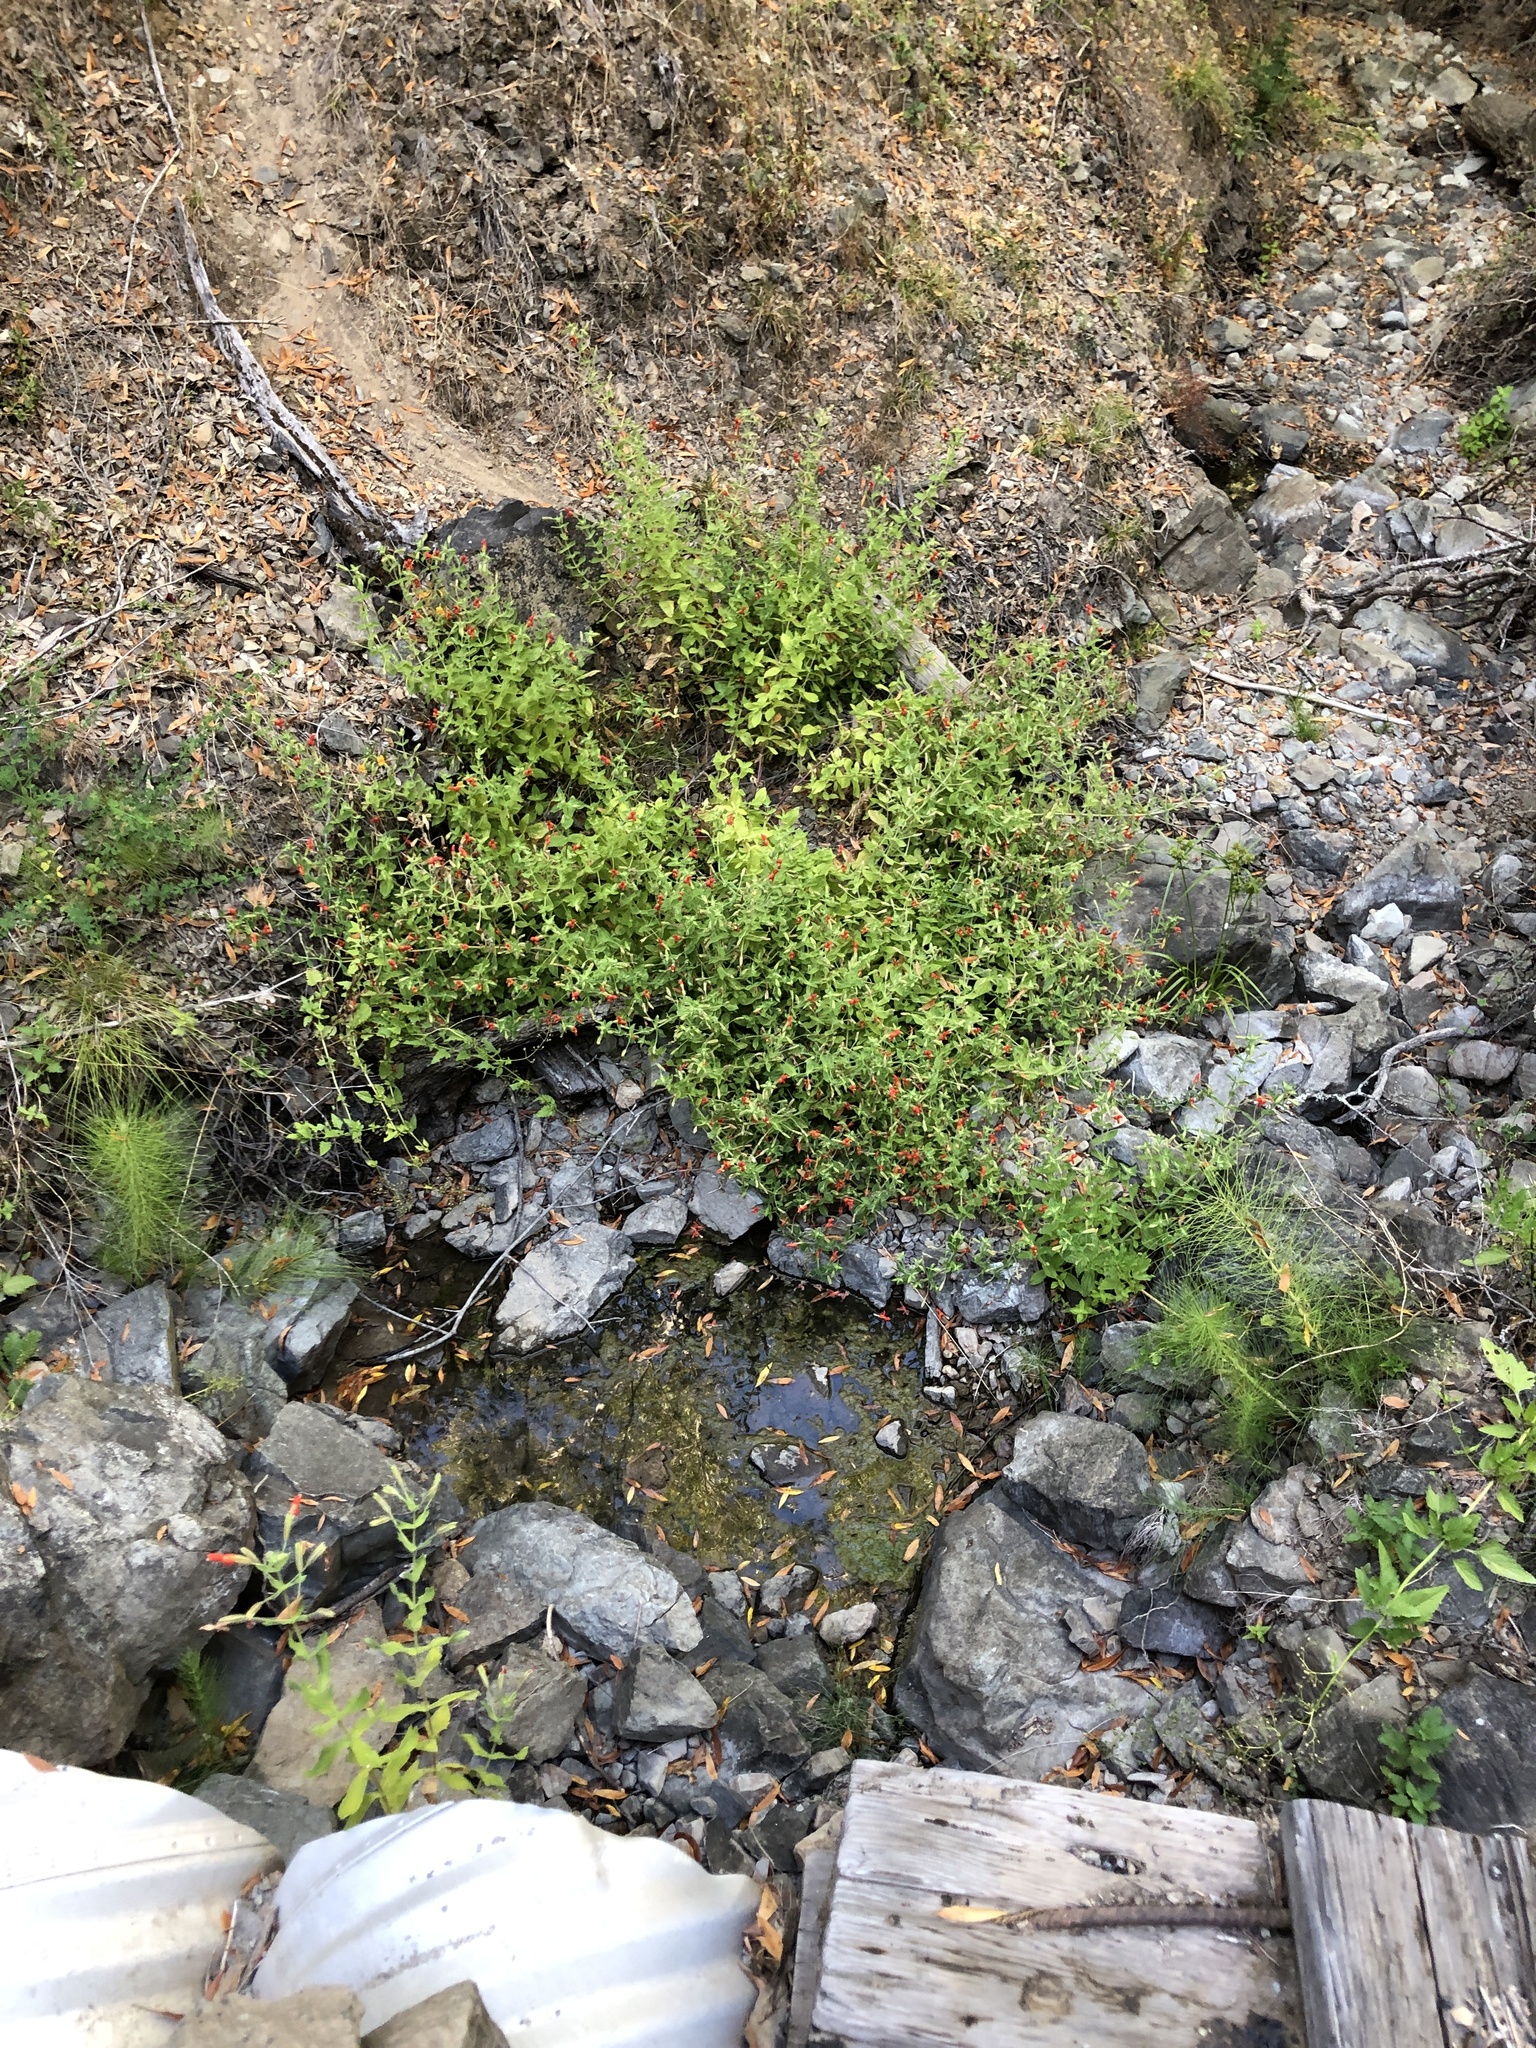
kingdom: Plantae
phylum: Tracheophyta
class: Magnoliopsida
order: Lamiales
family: Phrymaceae
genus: Erythranthe
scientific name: Erythranthe cardinalis
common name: Scarlet monkey-flower
